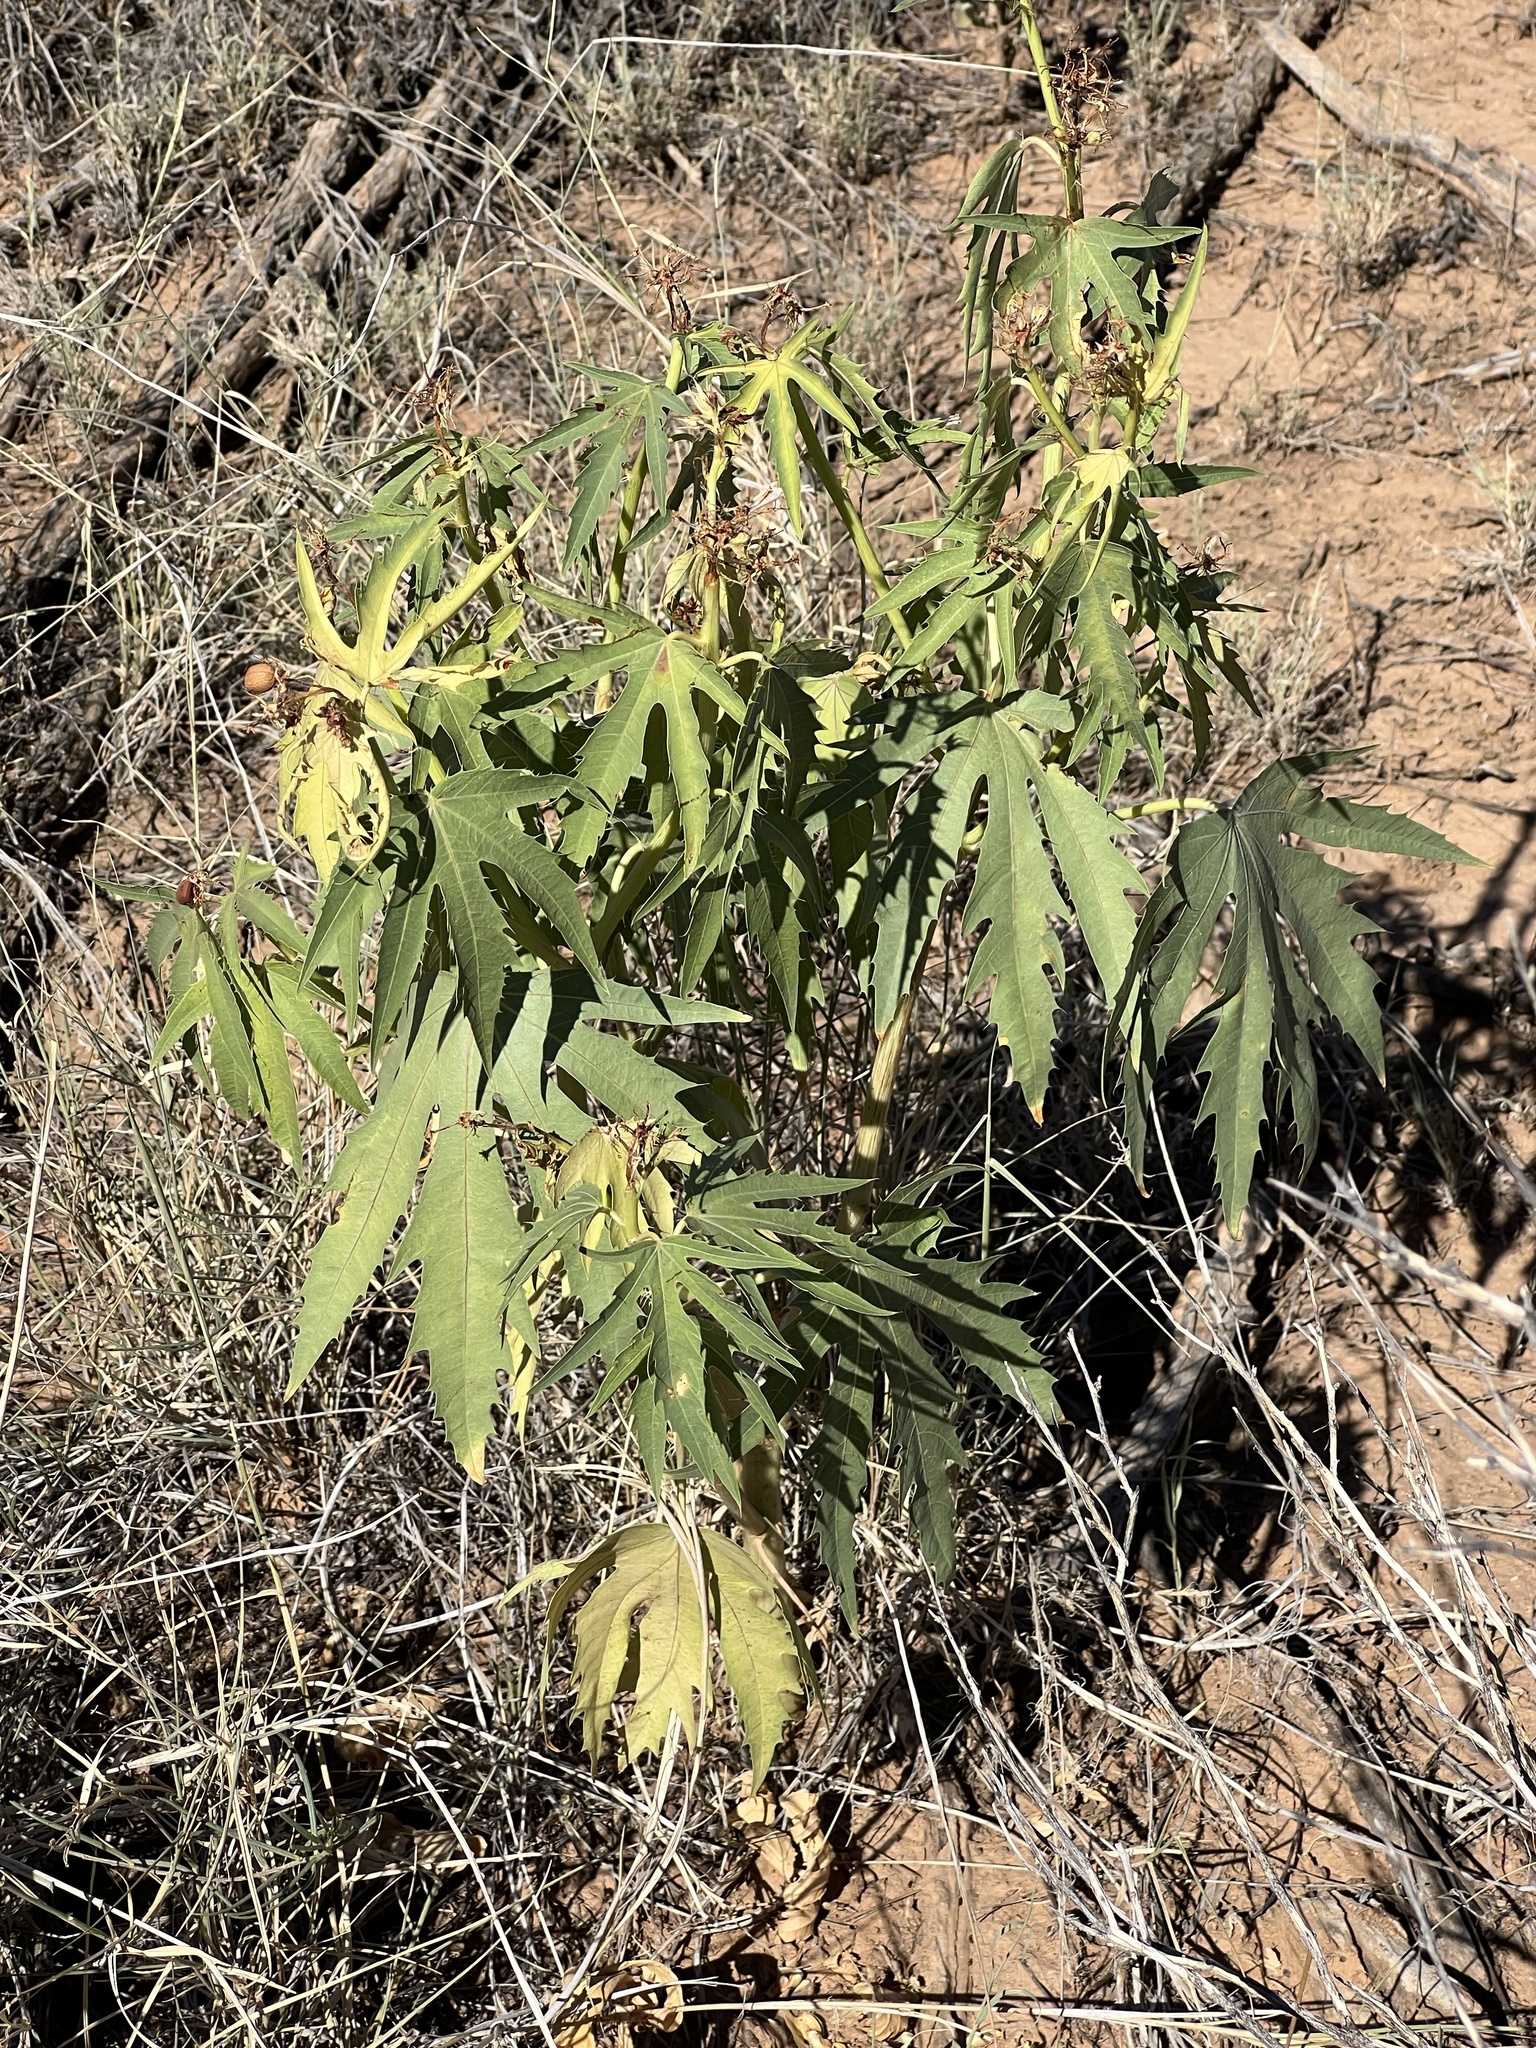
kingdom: Plantae
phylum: Tracheophyta
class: Magnoliopsida
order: Malpighiales
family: Euphorbiaceae
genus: Jatropha
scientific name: Jatropha macrorhiza
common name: Ragged nettlespurge
